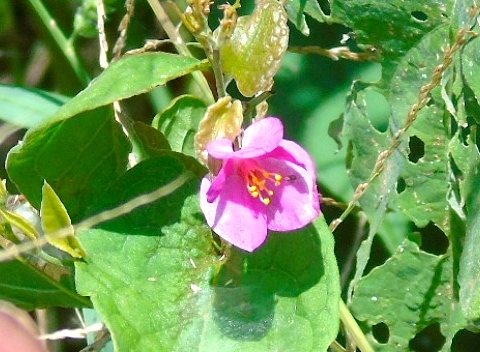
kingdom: Plantae
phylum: Tracheophyta
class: Magnoliopsida
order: Caryophyllales
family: Polygonaceae
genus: Antigonon
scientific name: Antigonon leptopus
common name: Coral vine
